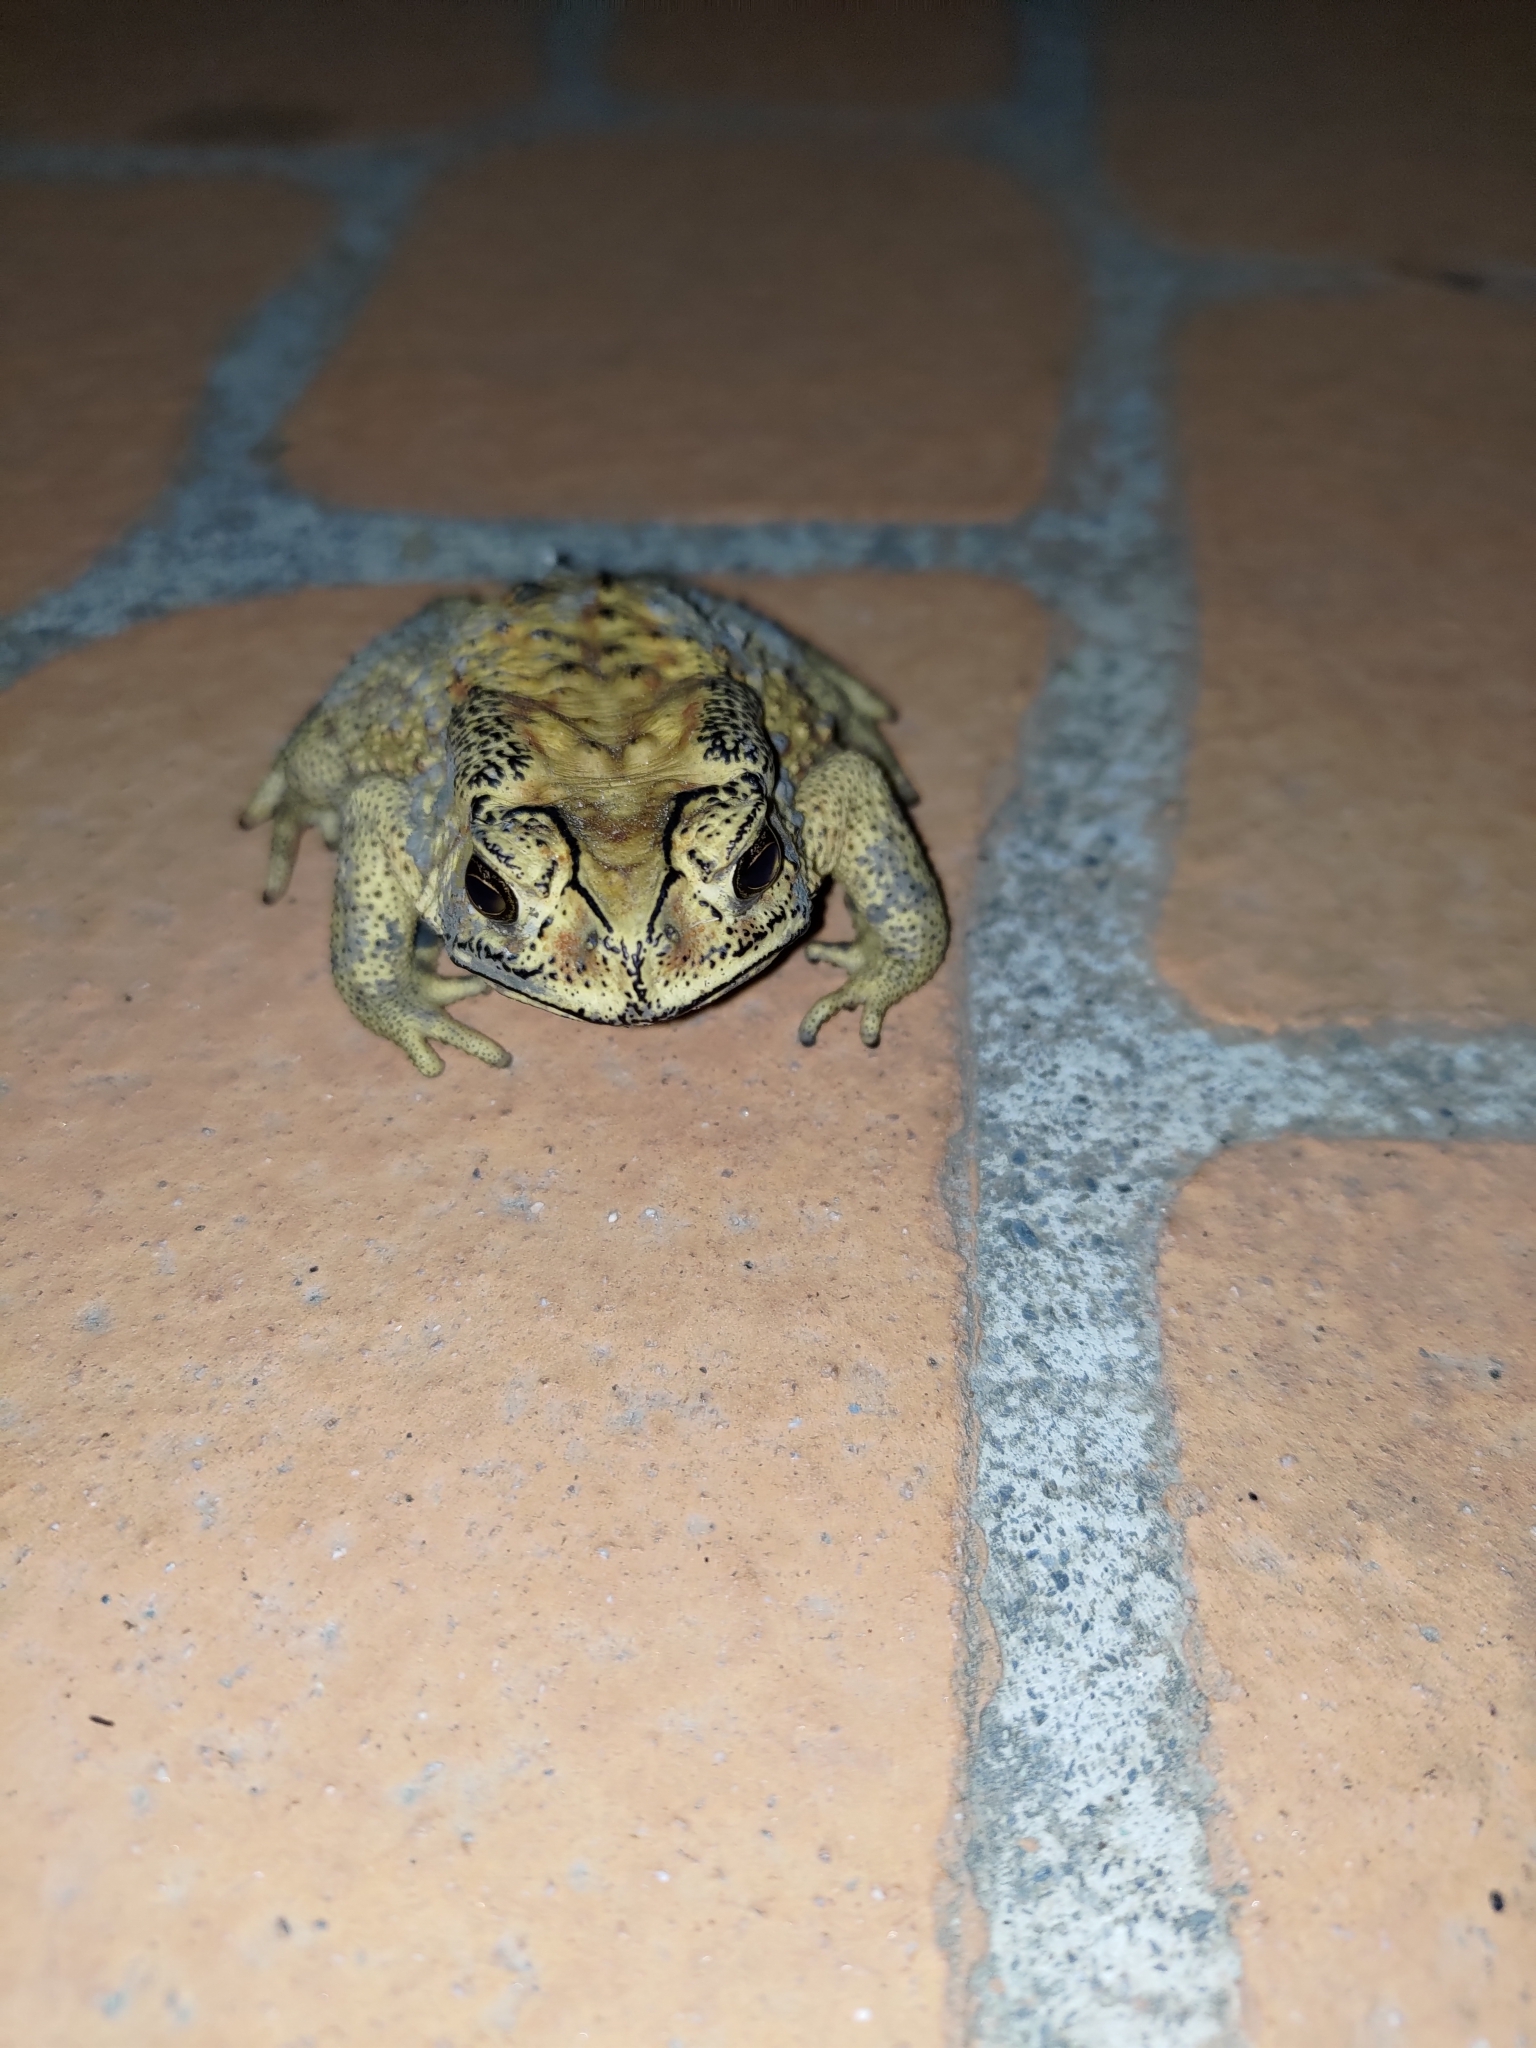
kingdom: Animalia
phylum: Chordata
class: Amphibia
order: Anura
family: Bufonidae
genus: Duttaphrynus
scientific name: Duttaphrynus melanostictus
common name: Common sunda toad
